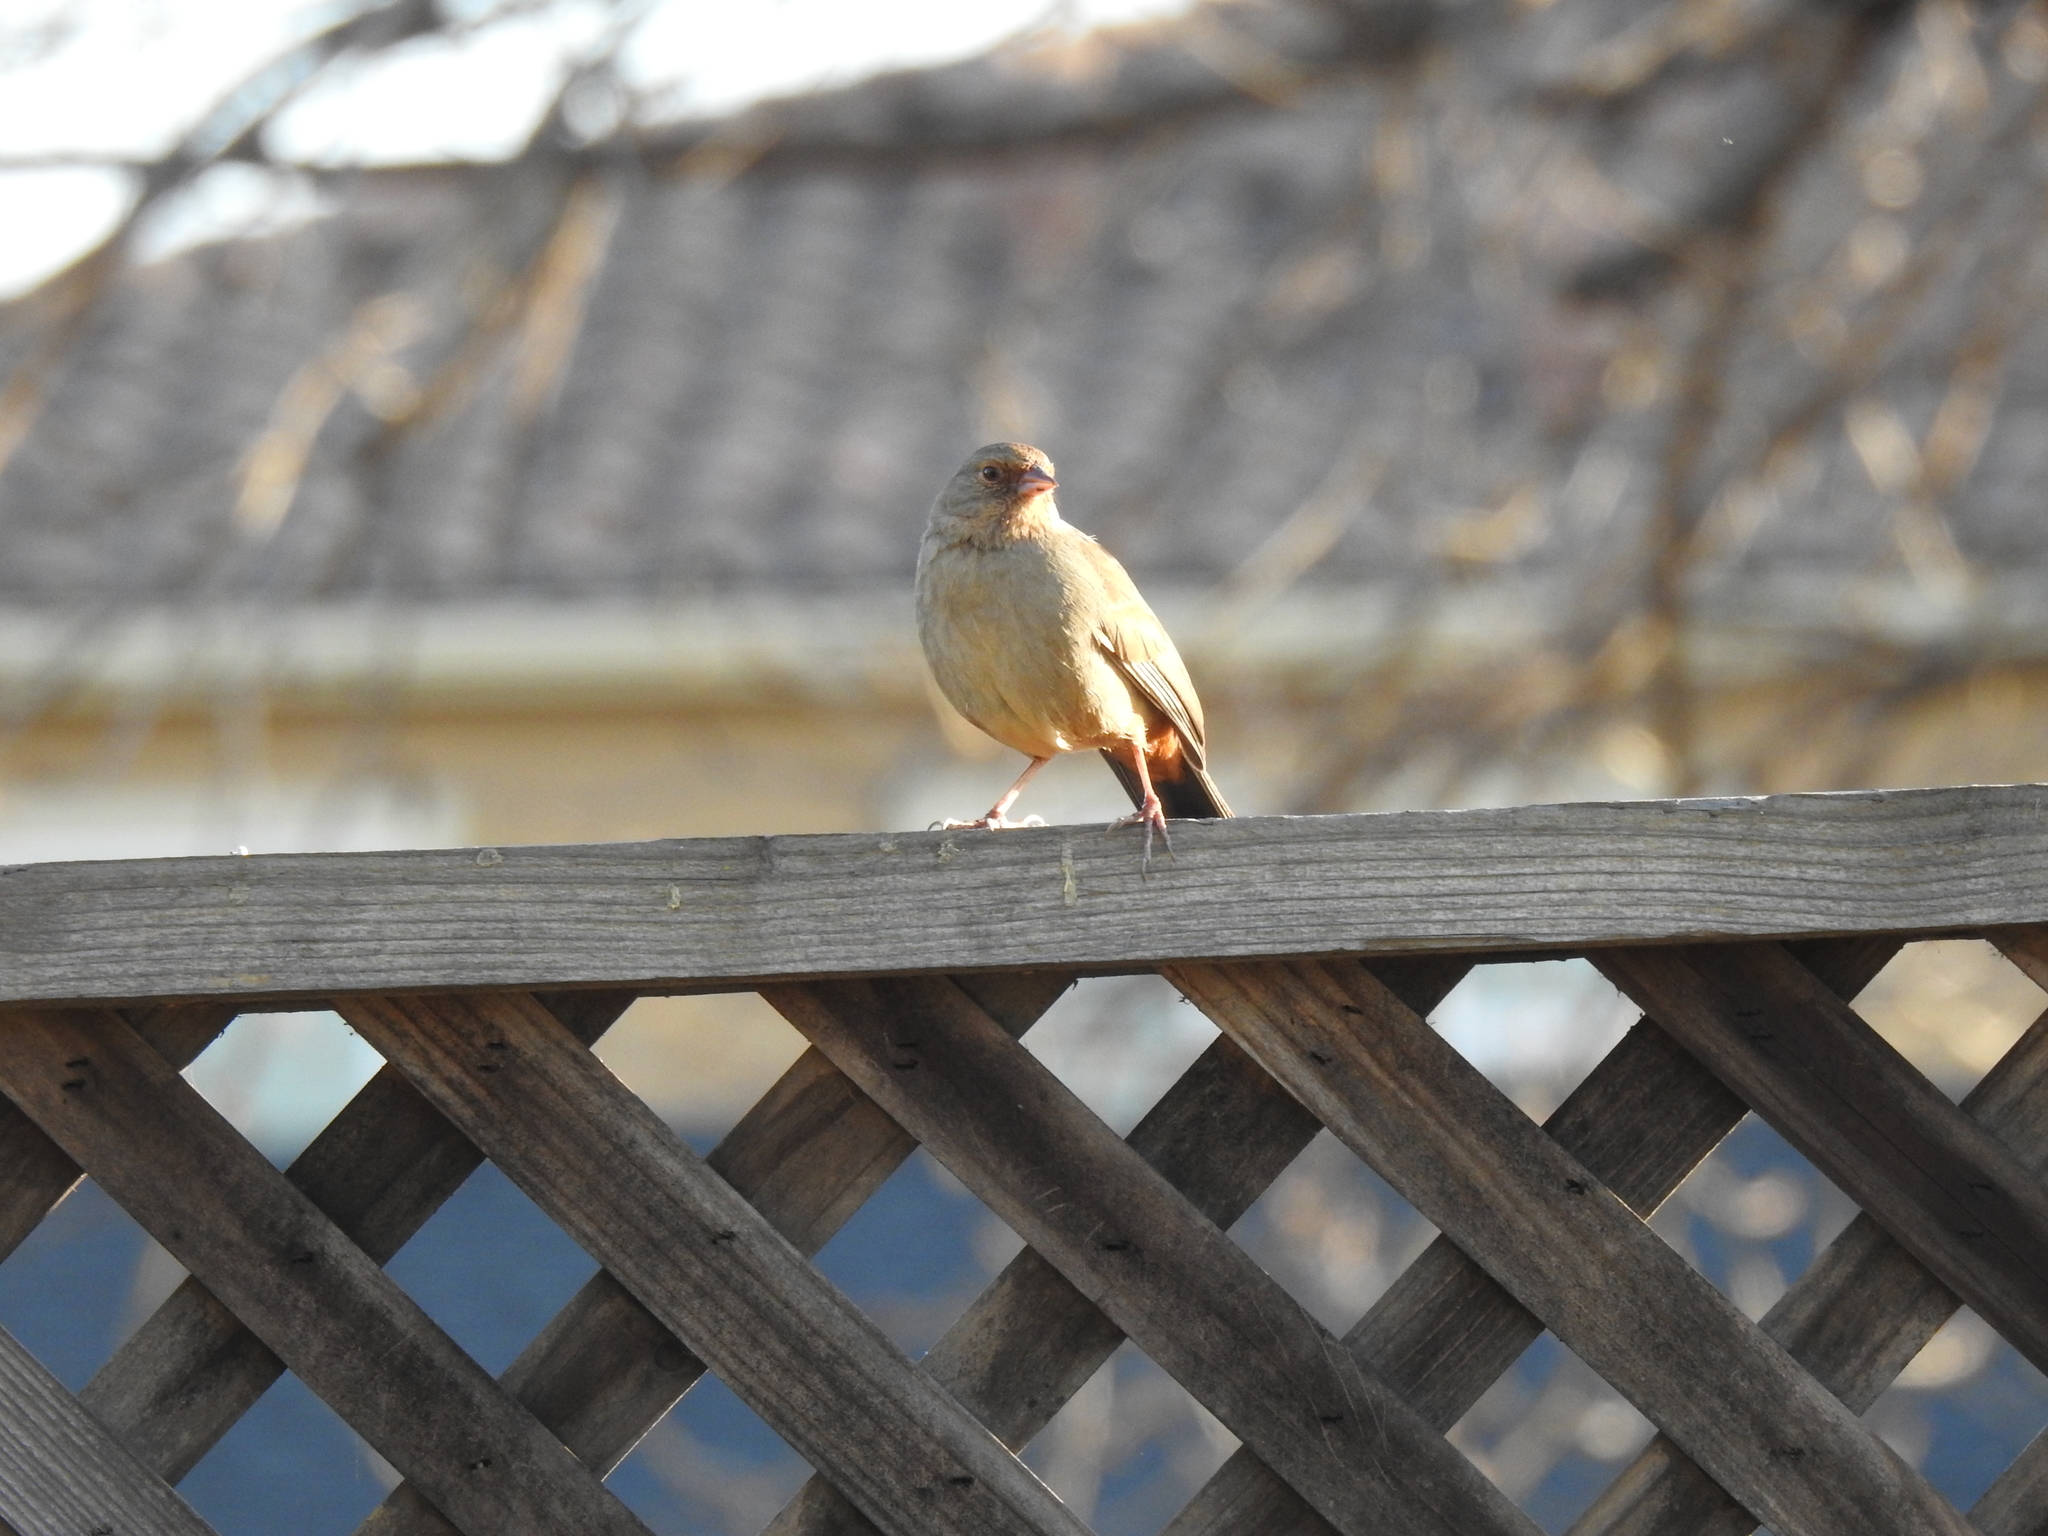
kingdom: Animalia
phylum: Chordata
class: Aves
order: Passeriformes
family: Passerellidae
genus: Melozone
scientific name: Melozone crissalis
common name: California towhee
